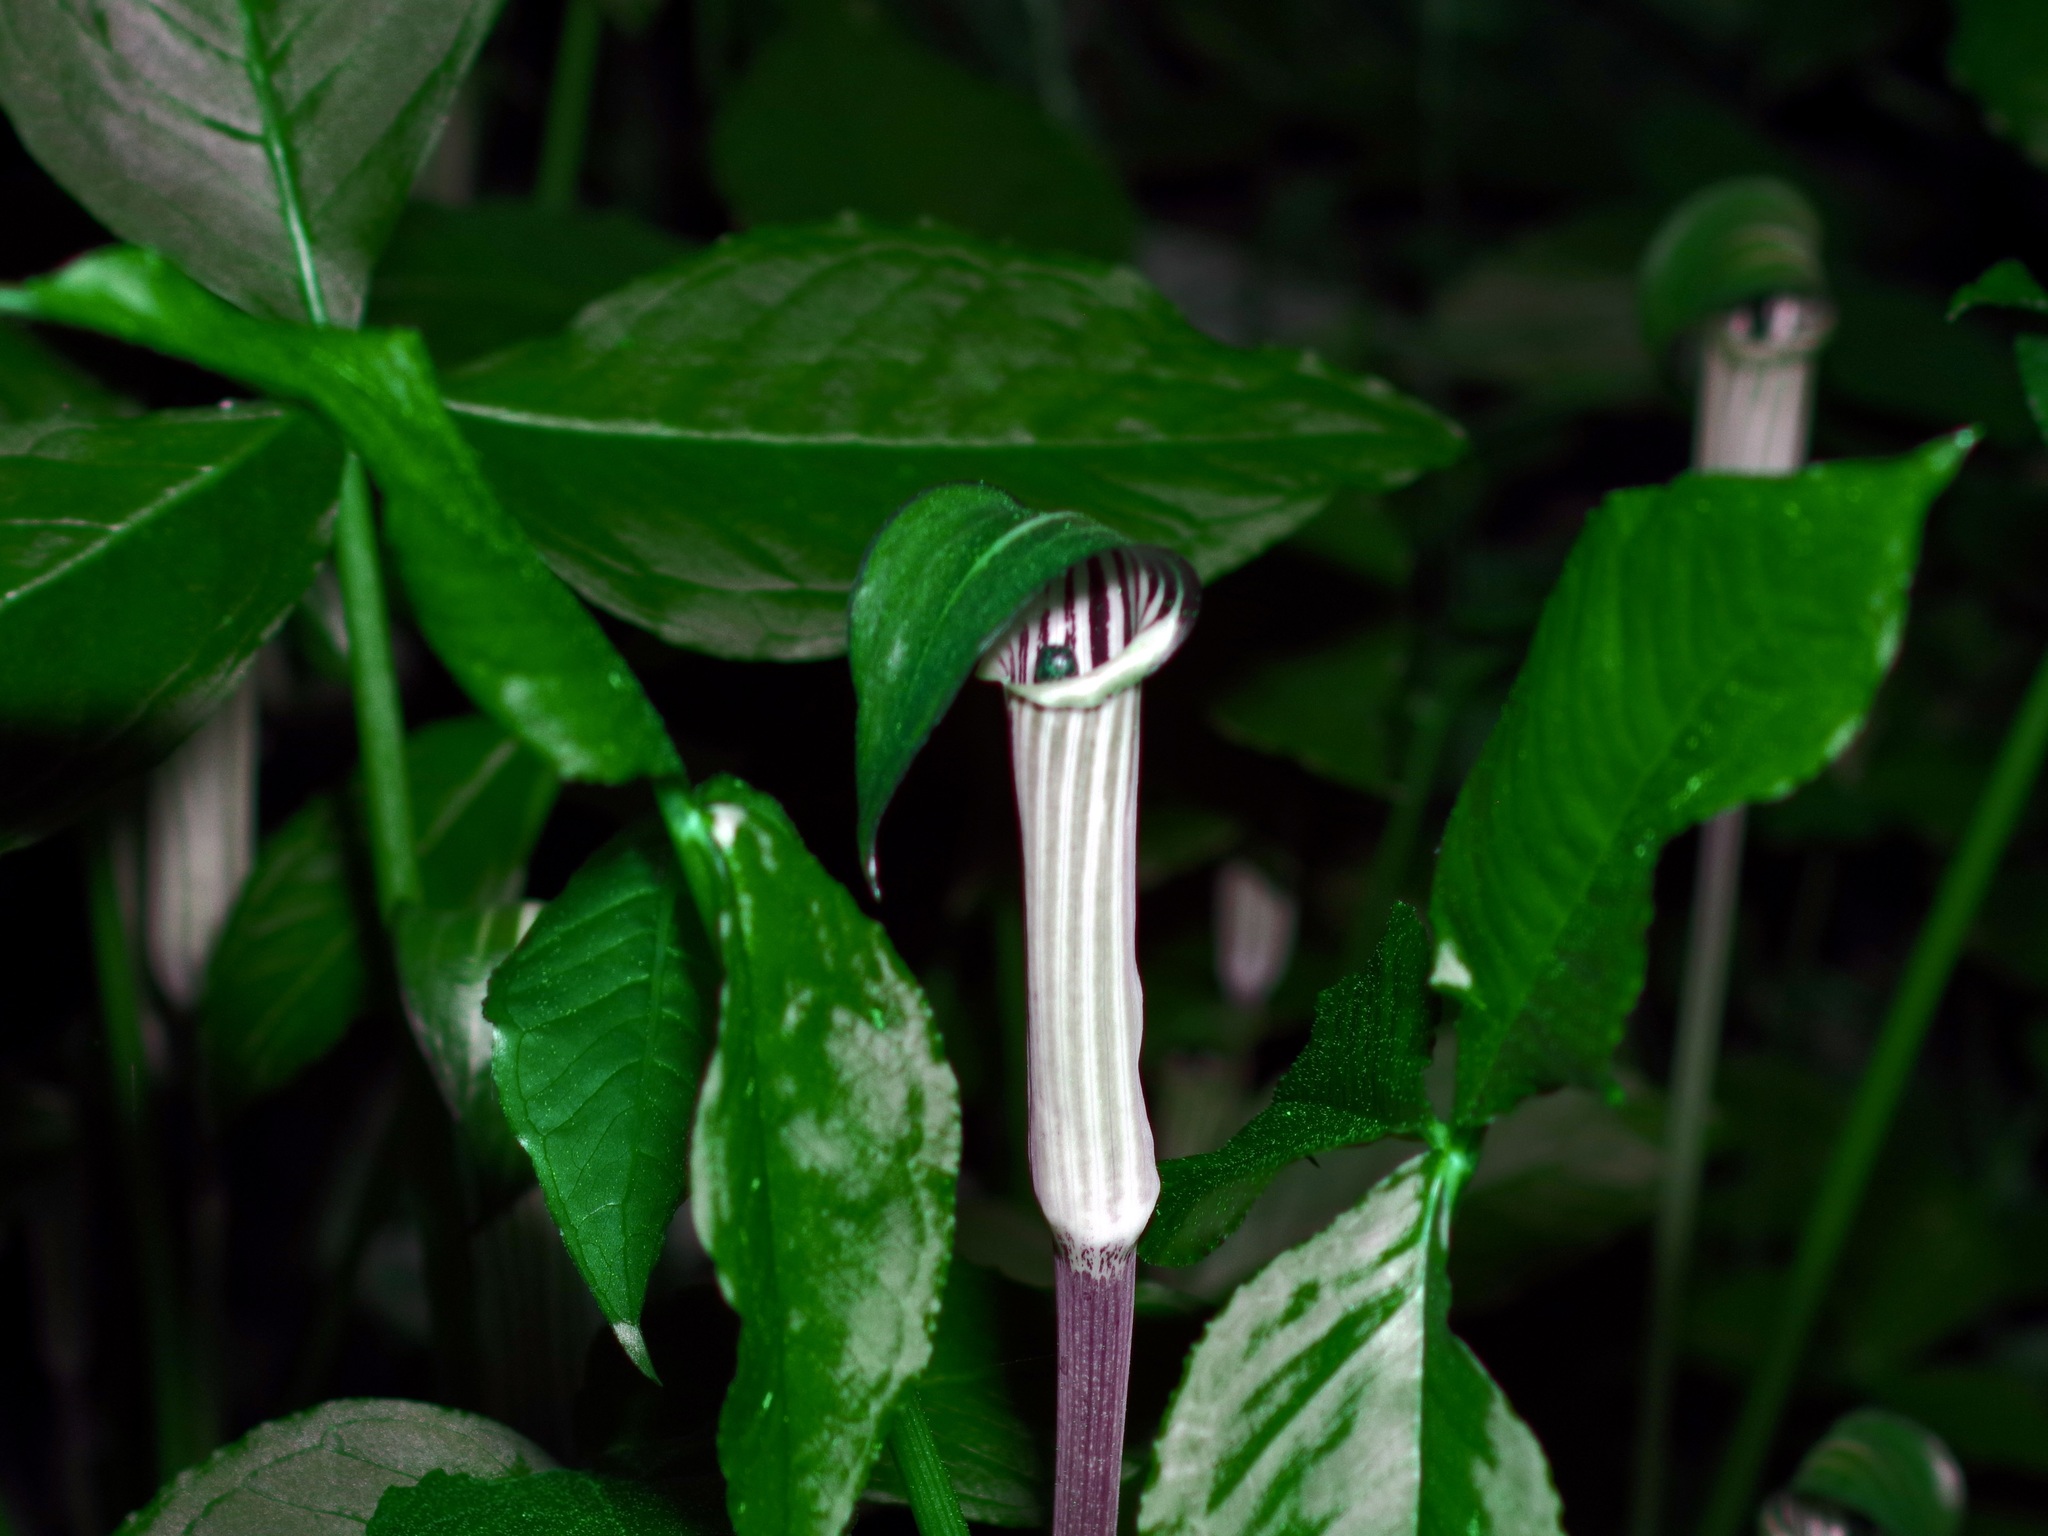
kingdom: Plantae
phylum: Tracheophyta
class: Liliopsida
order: Alismatales
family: Araceae
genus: Arisaema
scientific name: Arisaema triphyllum
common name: Jack-in-the-pulpit
